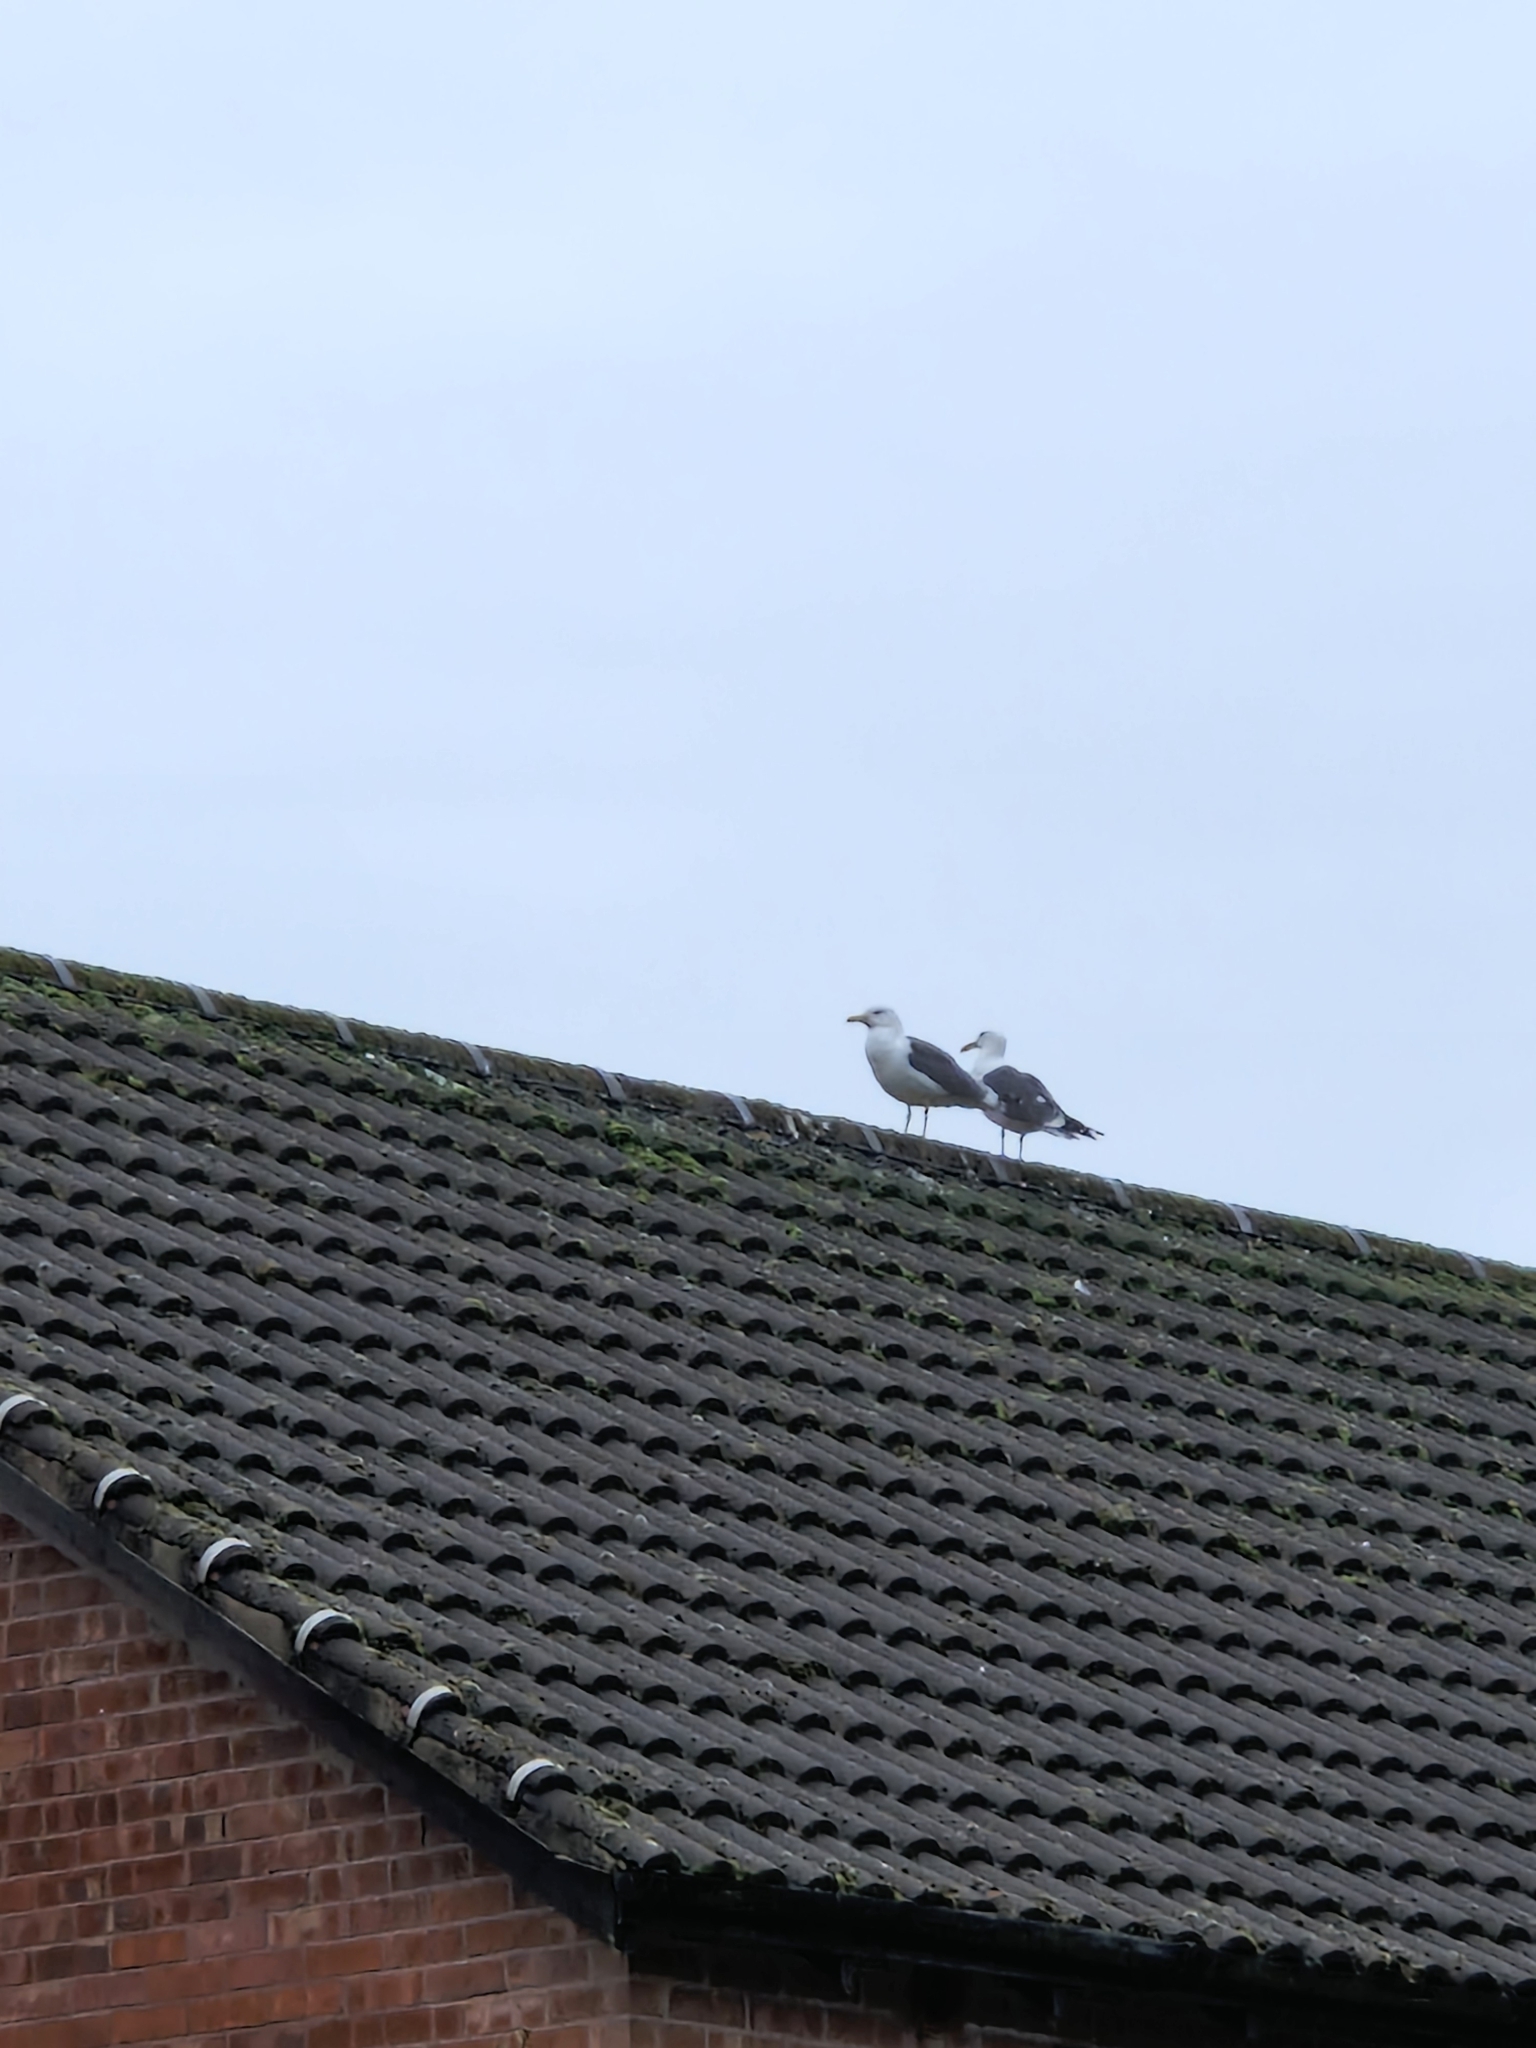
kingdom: Animalia
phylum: Chordata
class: Aves
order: Charadriiformes
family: Laridae
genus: Larus
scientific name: Larus fuscus
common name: Lesser black-backed gull
